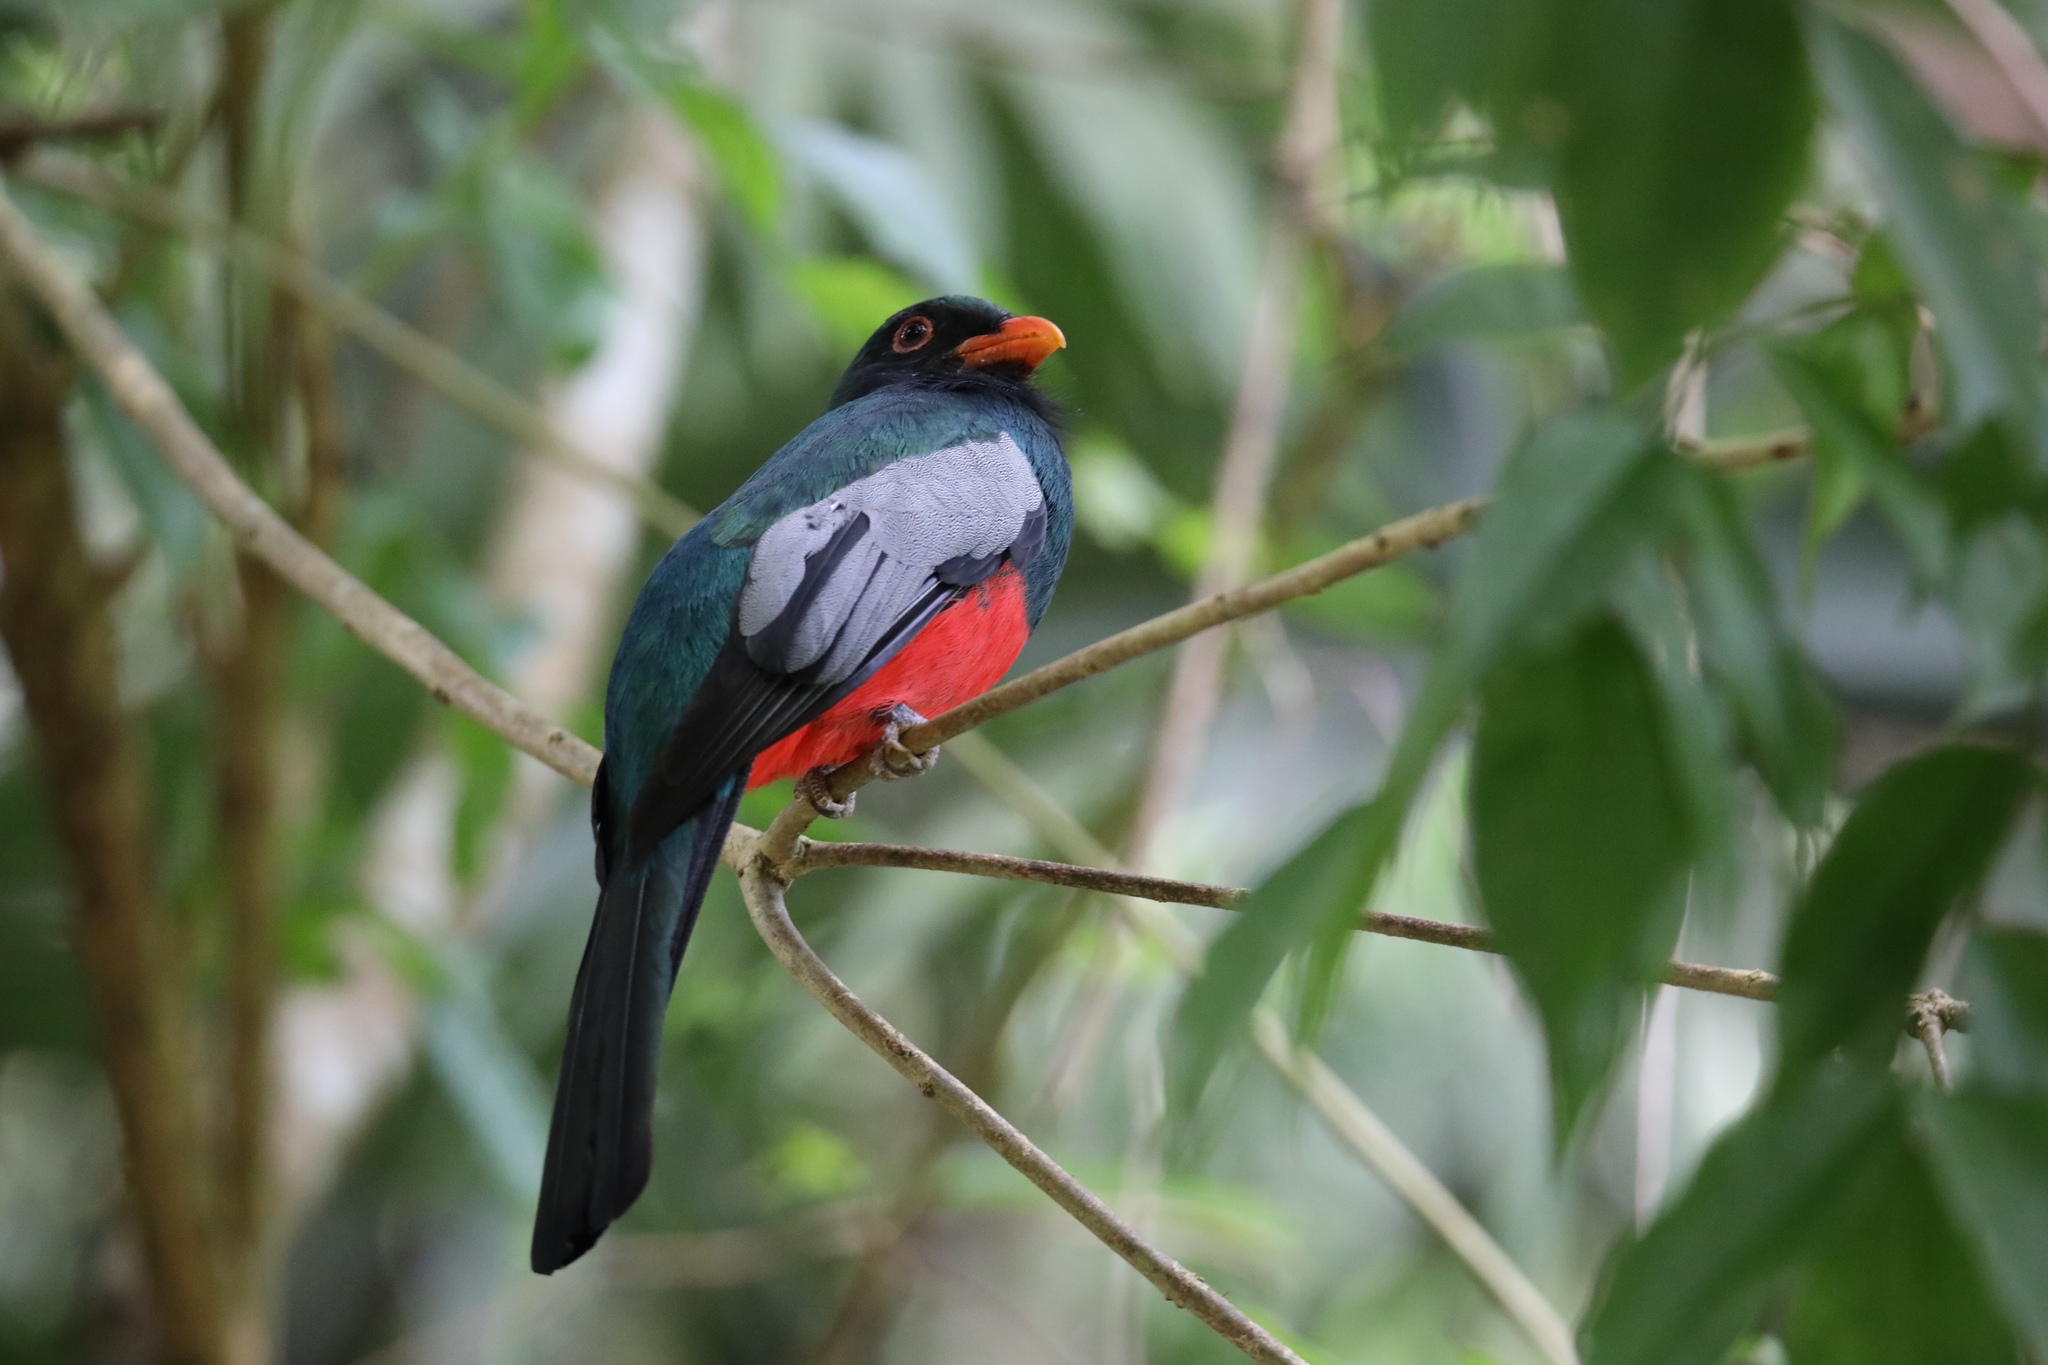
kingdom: Animalia
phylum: Chordata
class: Aves
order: Trogoniformes
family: Trogonidae
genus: Trogon
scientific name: Trogon massena
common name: Slaty-tailed trogon
